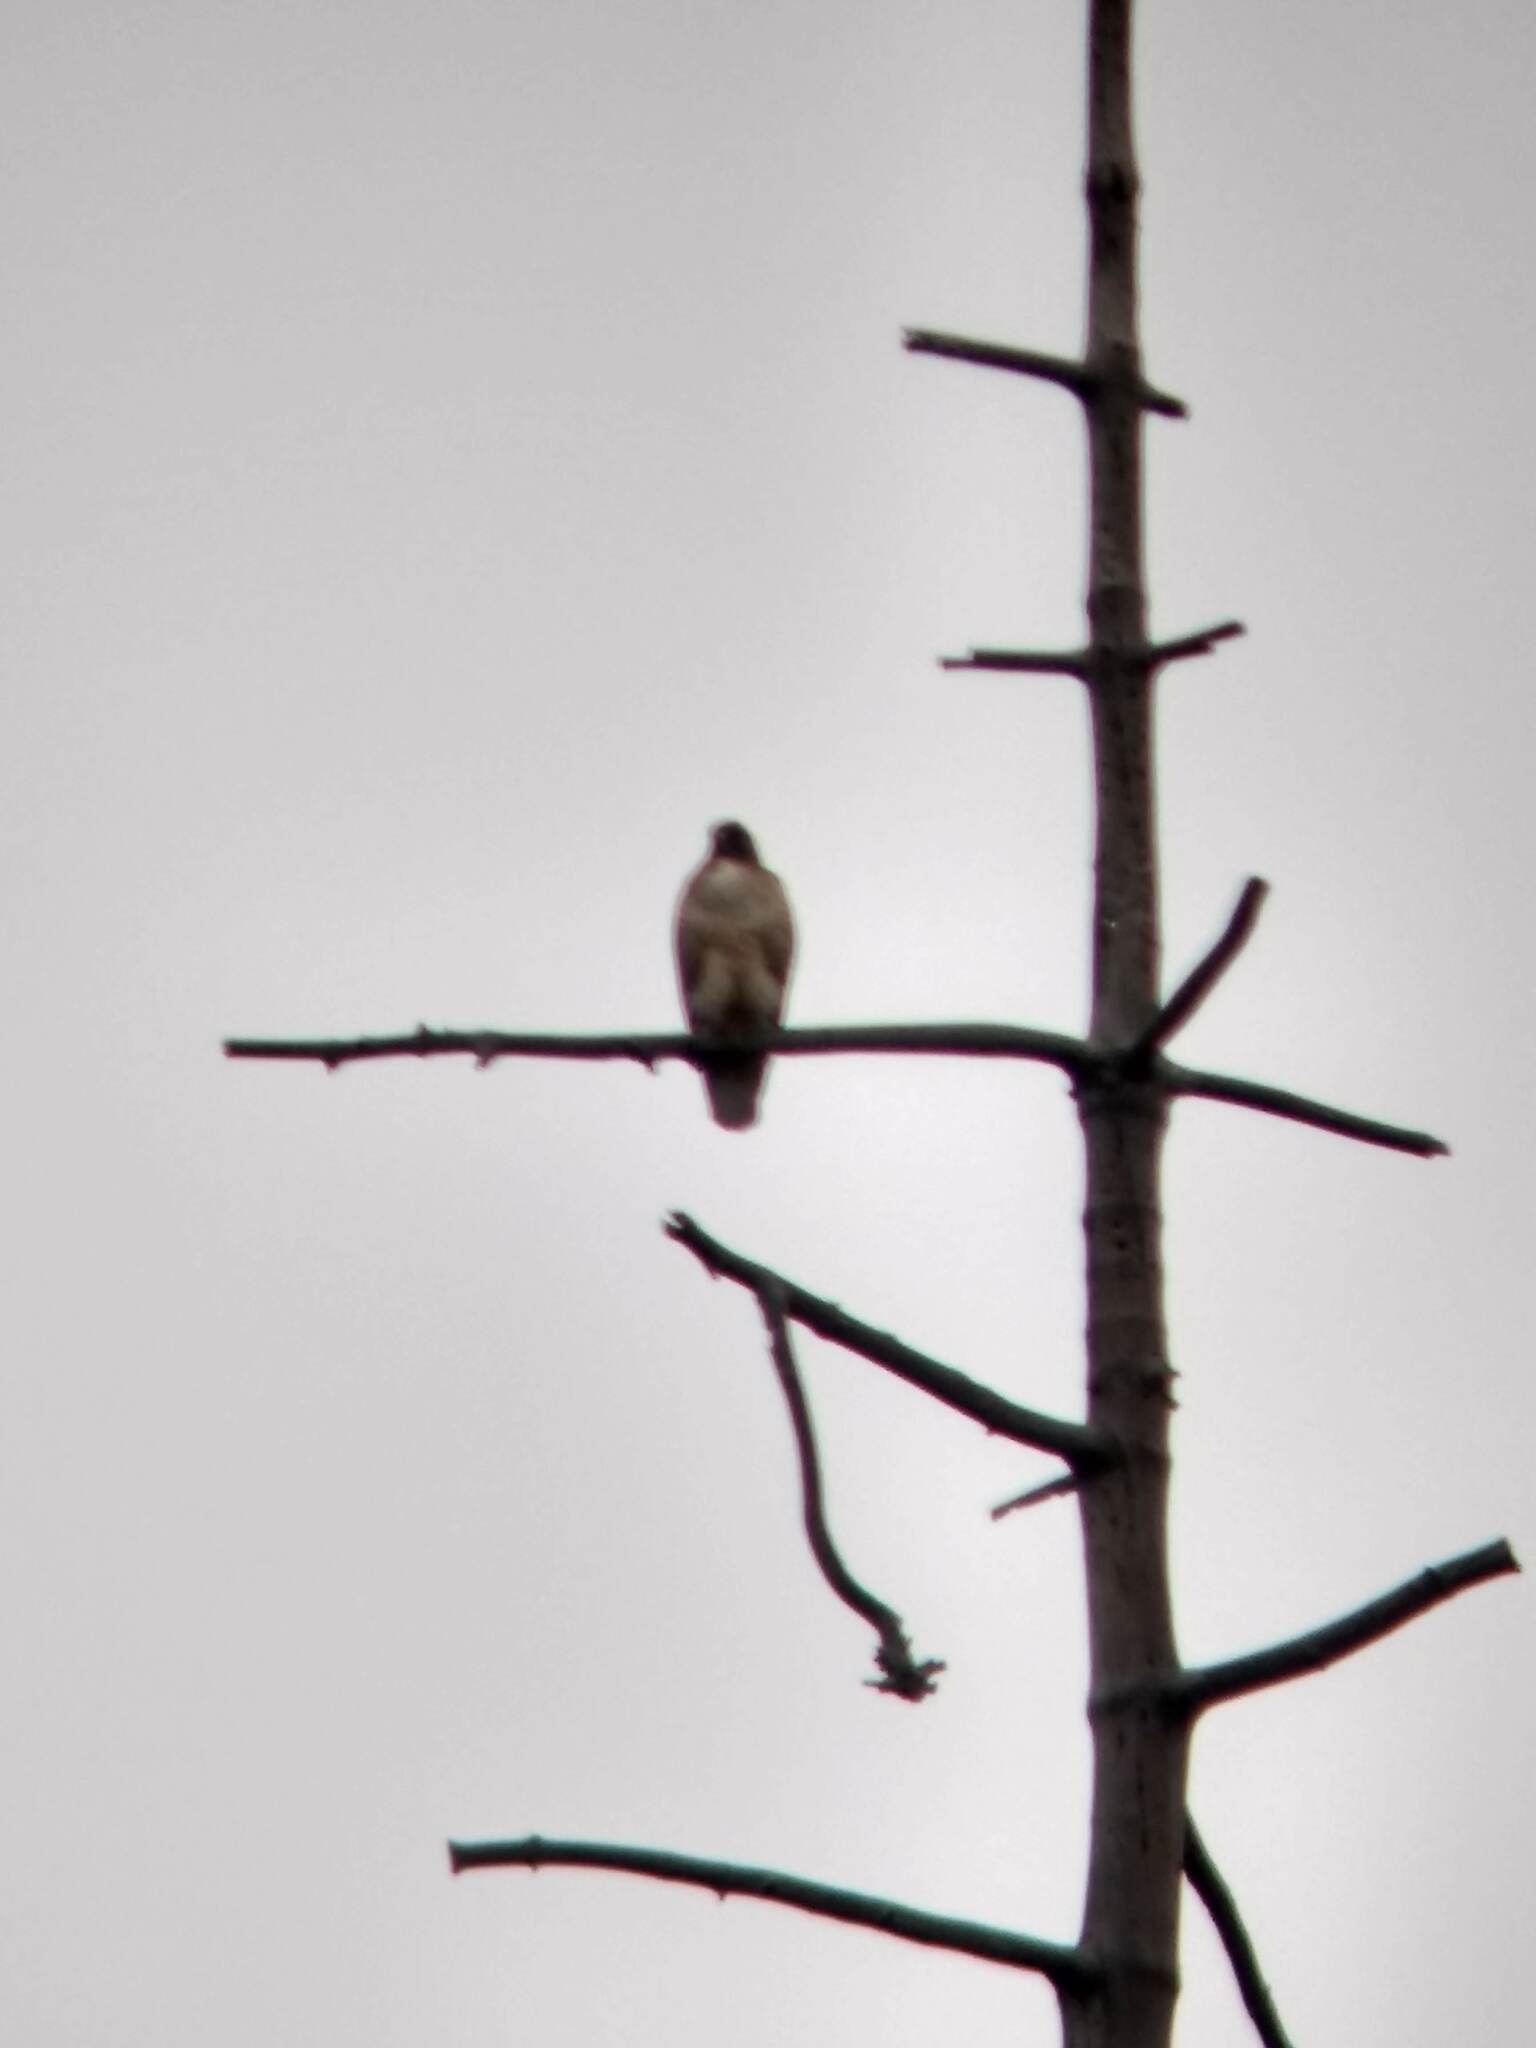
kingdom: Animalia
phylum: Chordata
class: Aves
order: Accipitriformes
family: Accipitridae
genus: Buteo
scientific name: Buteo jamaicensis
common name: Red-tailed hawk
